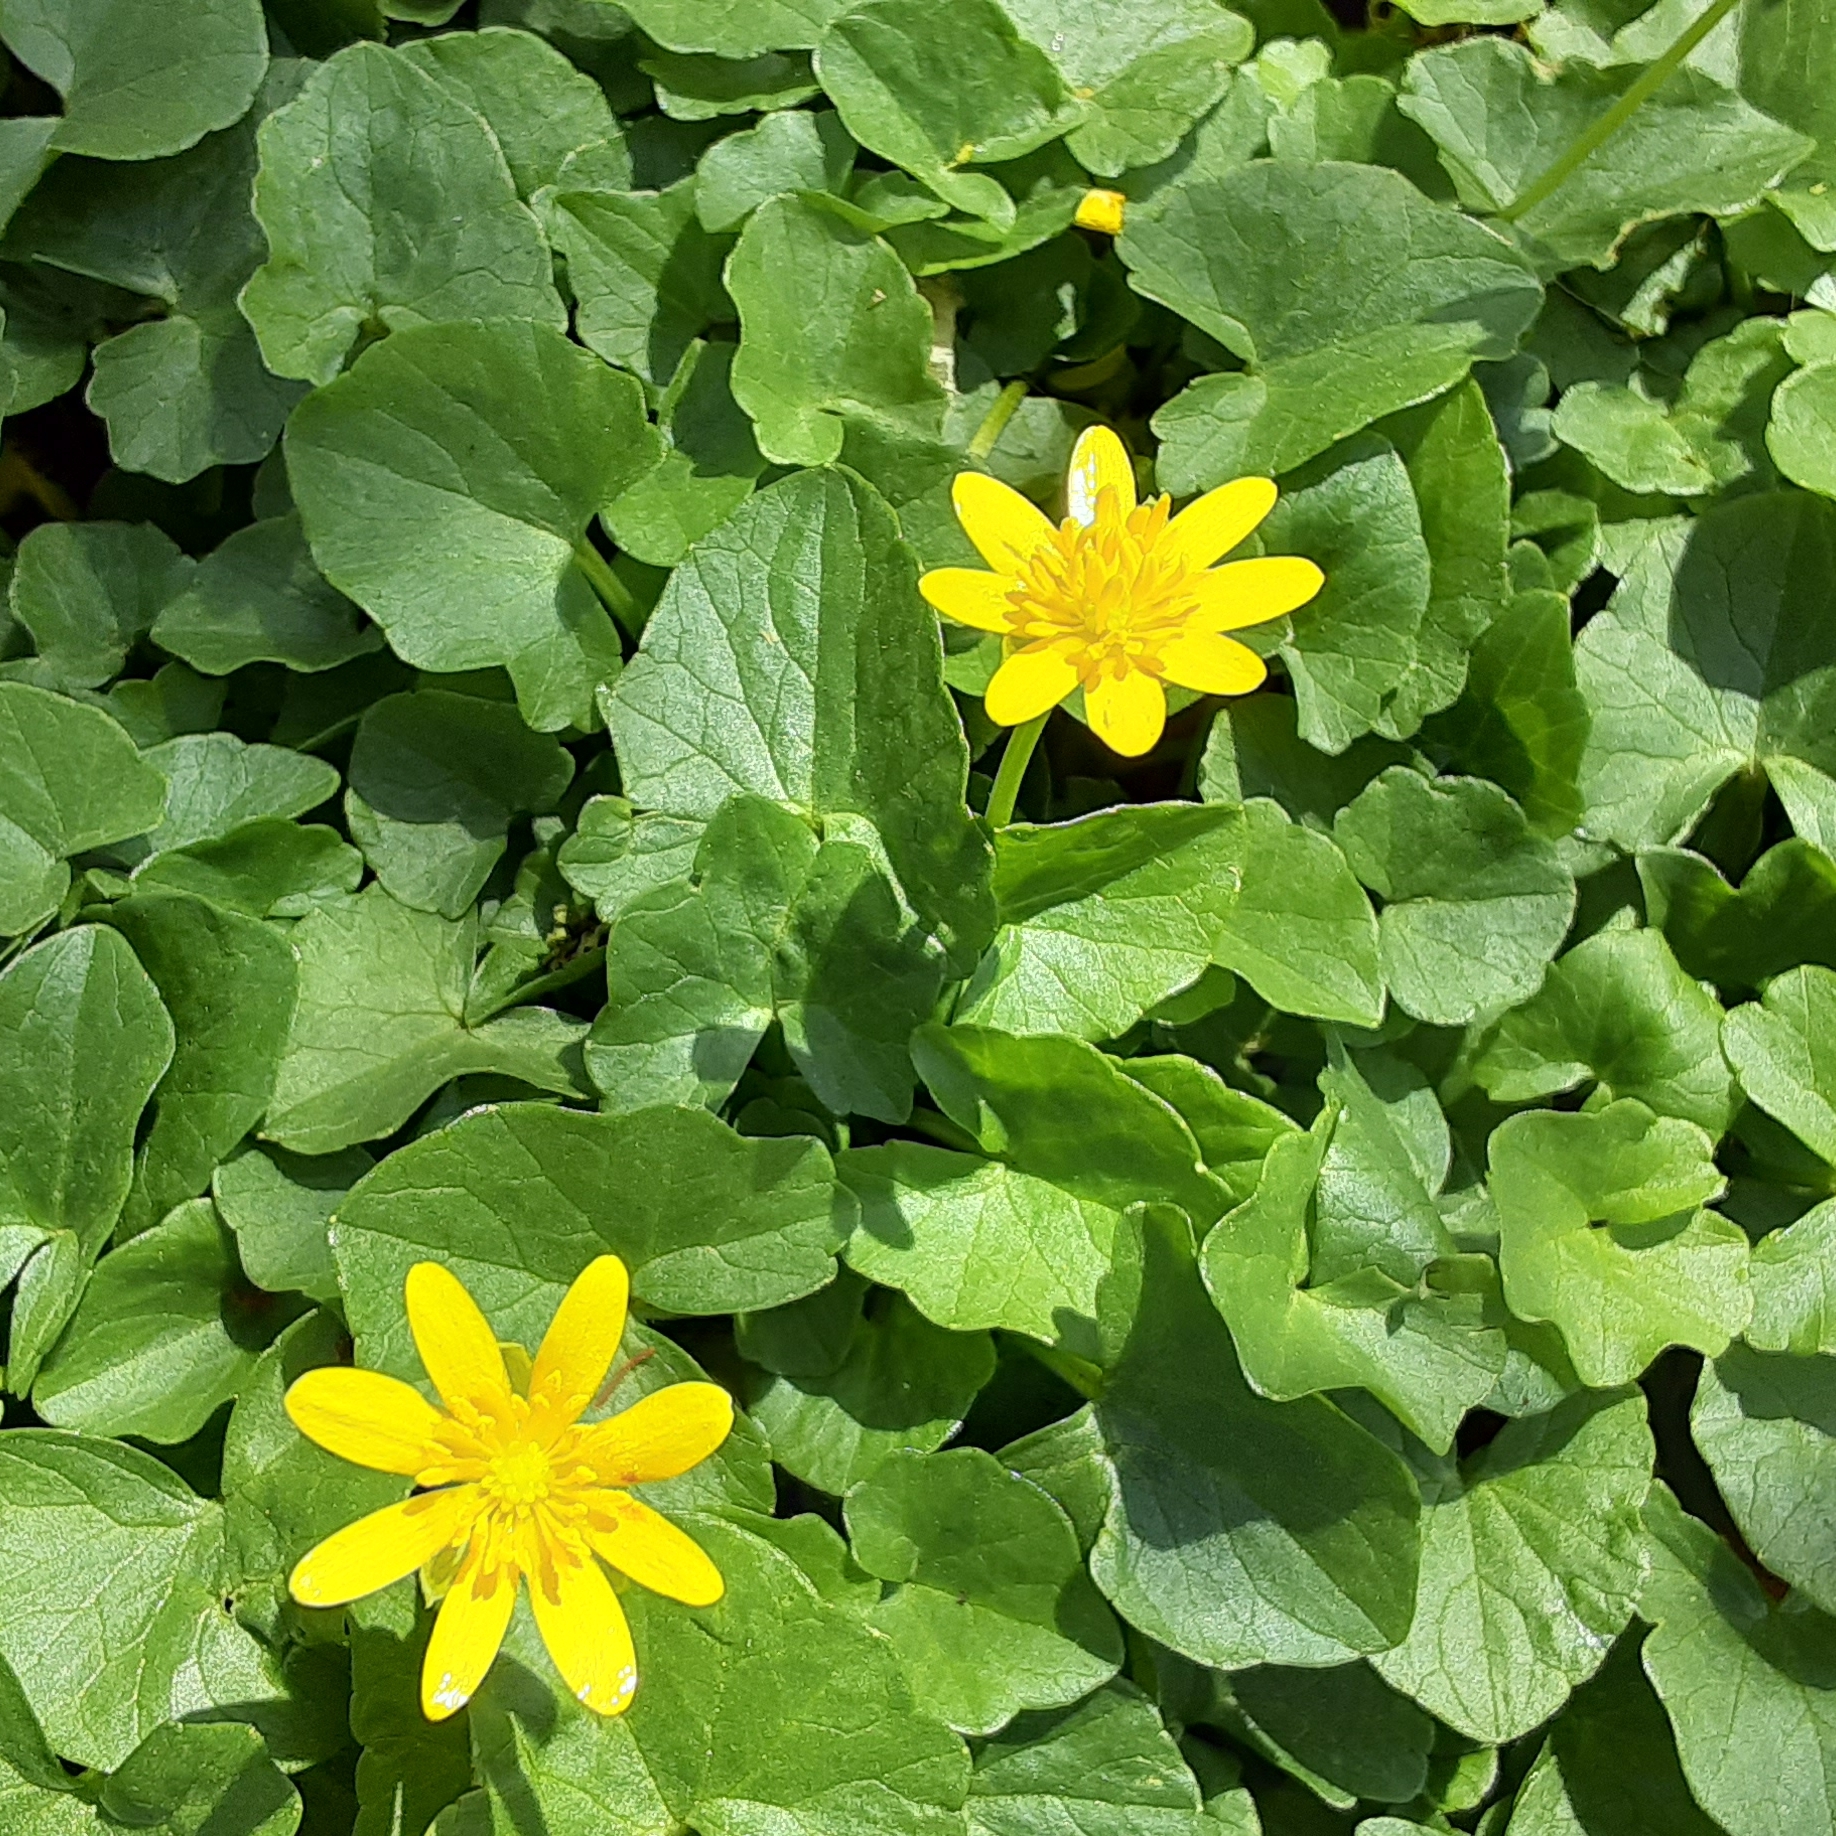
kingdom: Plantae
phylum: Tracheophyta
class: Magnoliopsida
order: Ranunculales
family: Ranunculaceae
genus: Ficaria
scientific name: Ficaria verna
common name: Lesser celandine
